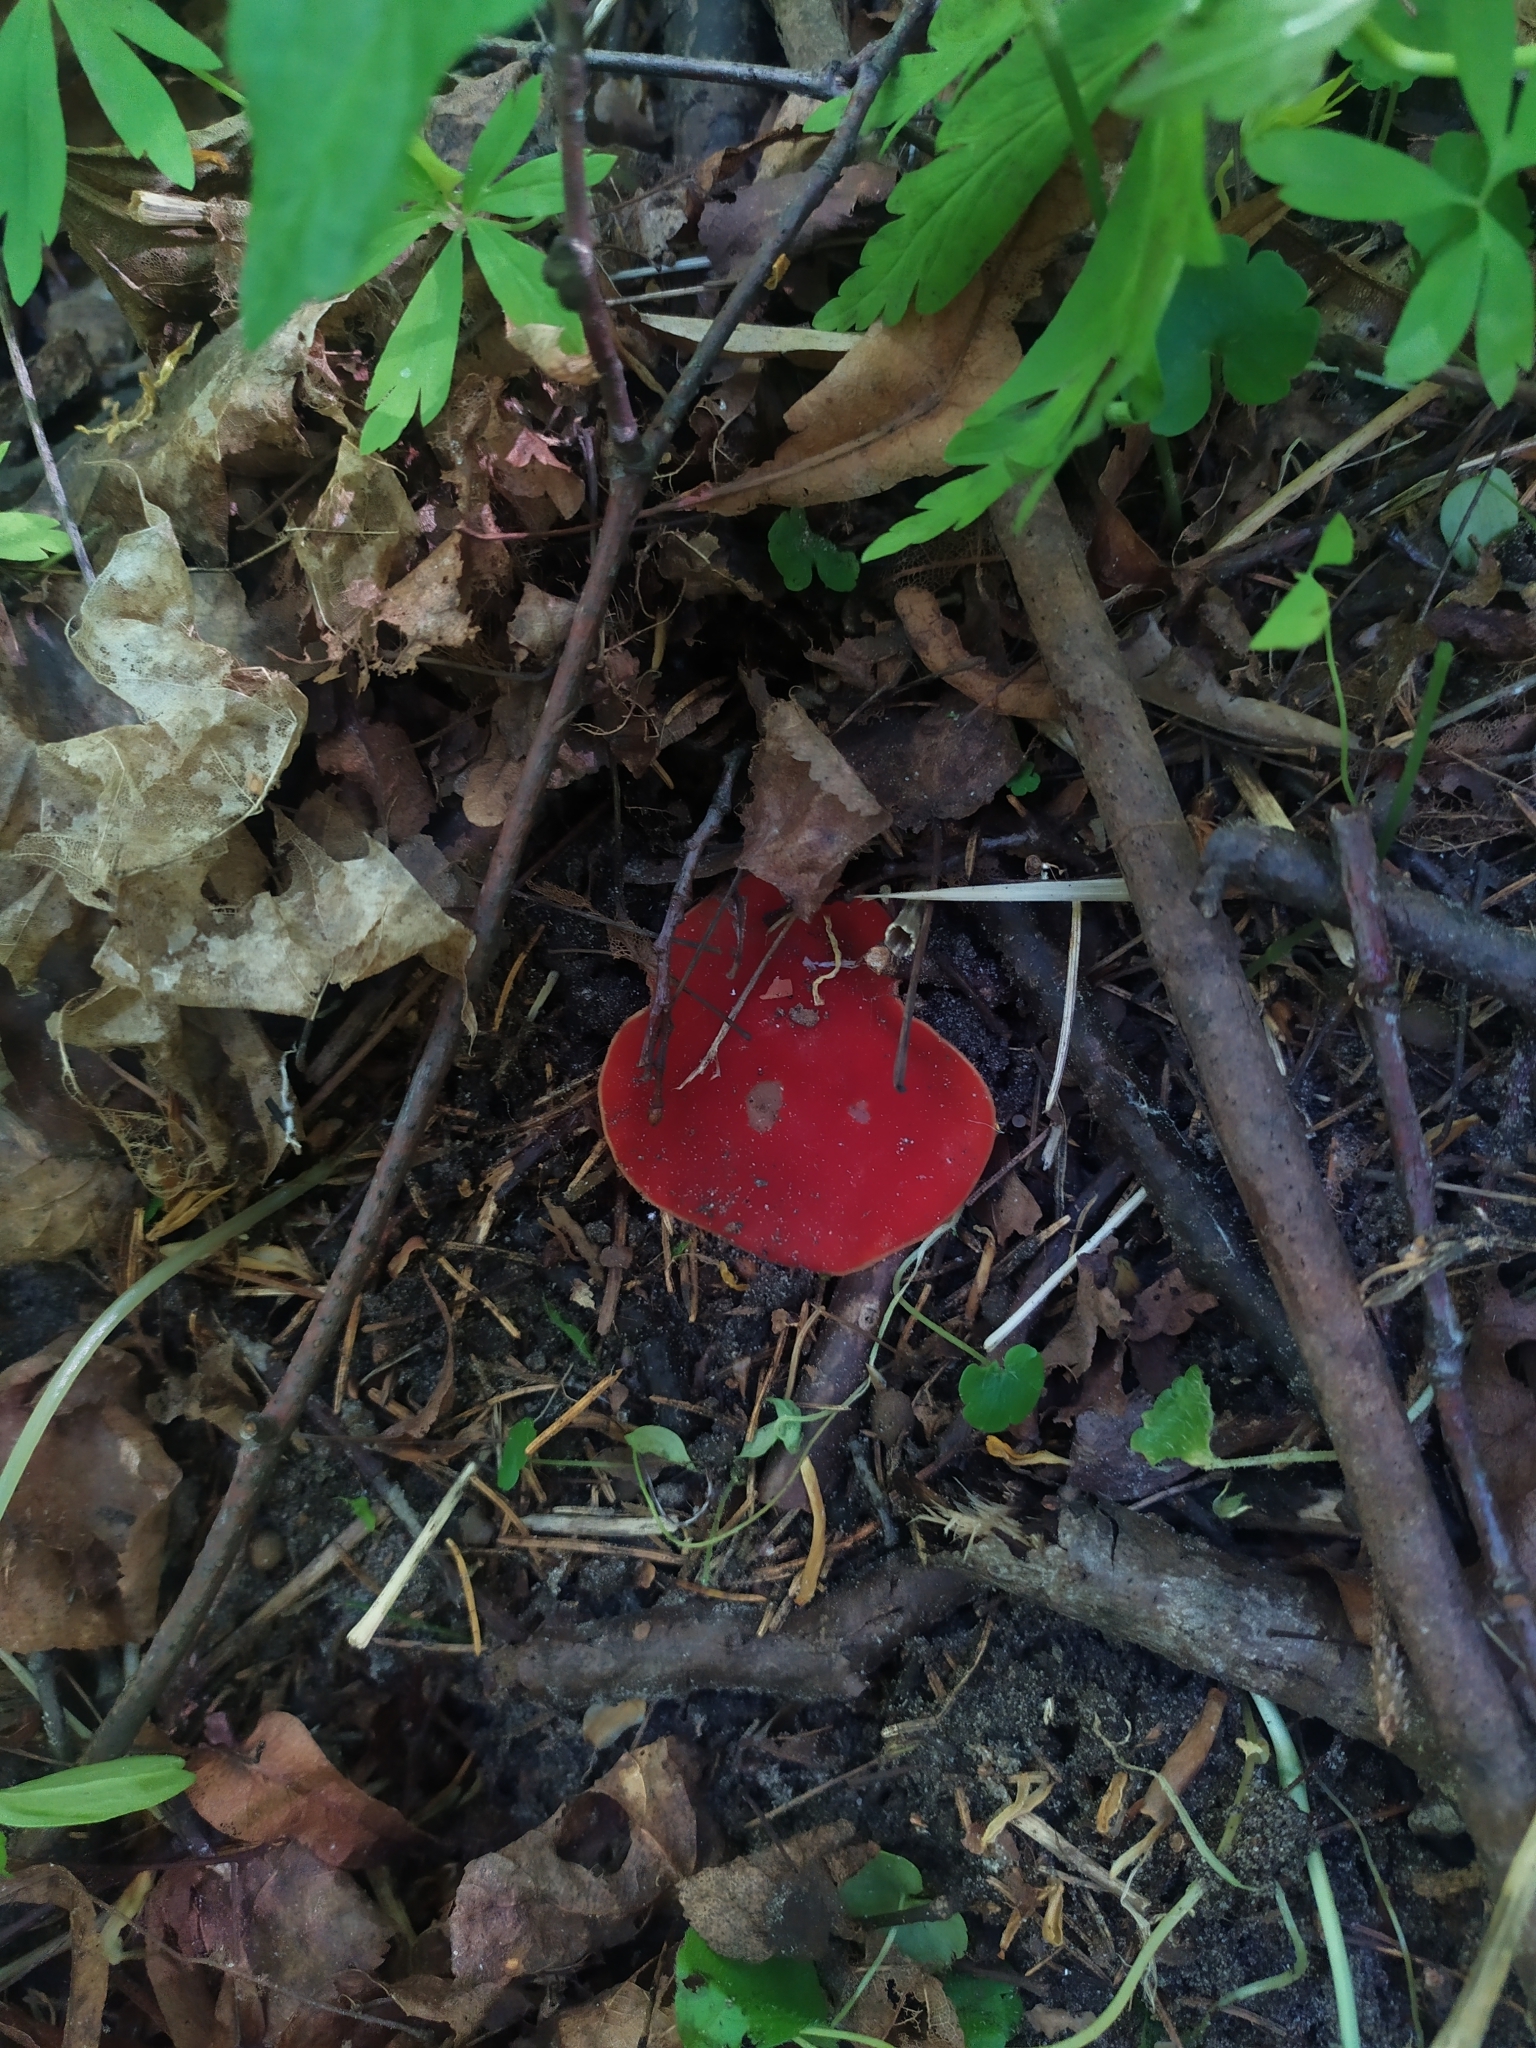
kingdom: Fungi
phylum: Ascomycota
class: Pezizomycetes
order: Pezizales
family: Sarcoscyphaceae
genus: Sarcoscypha
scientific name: Sarcoscypha austriaca
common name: Scarlet elfcup
